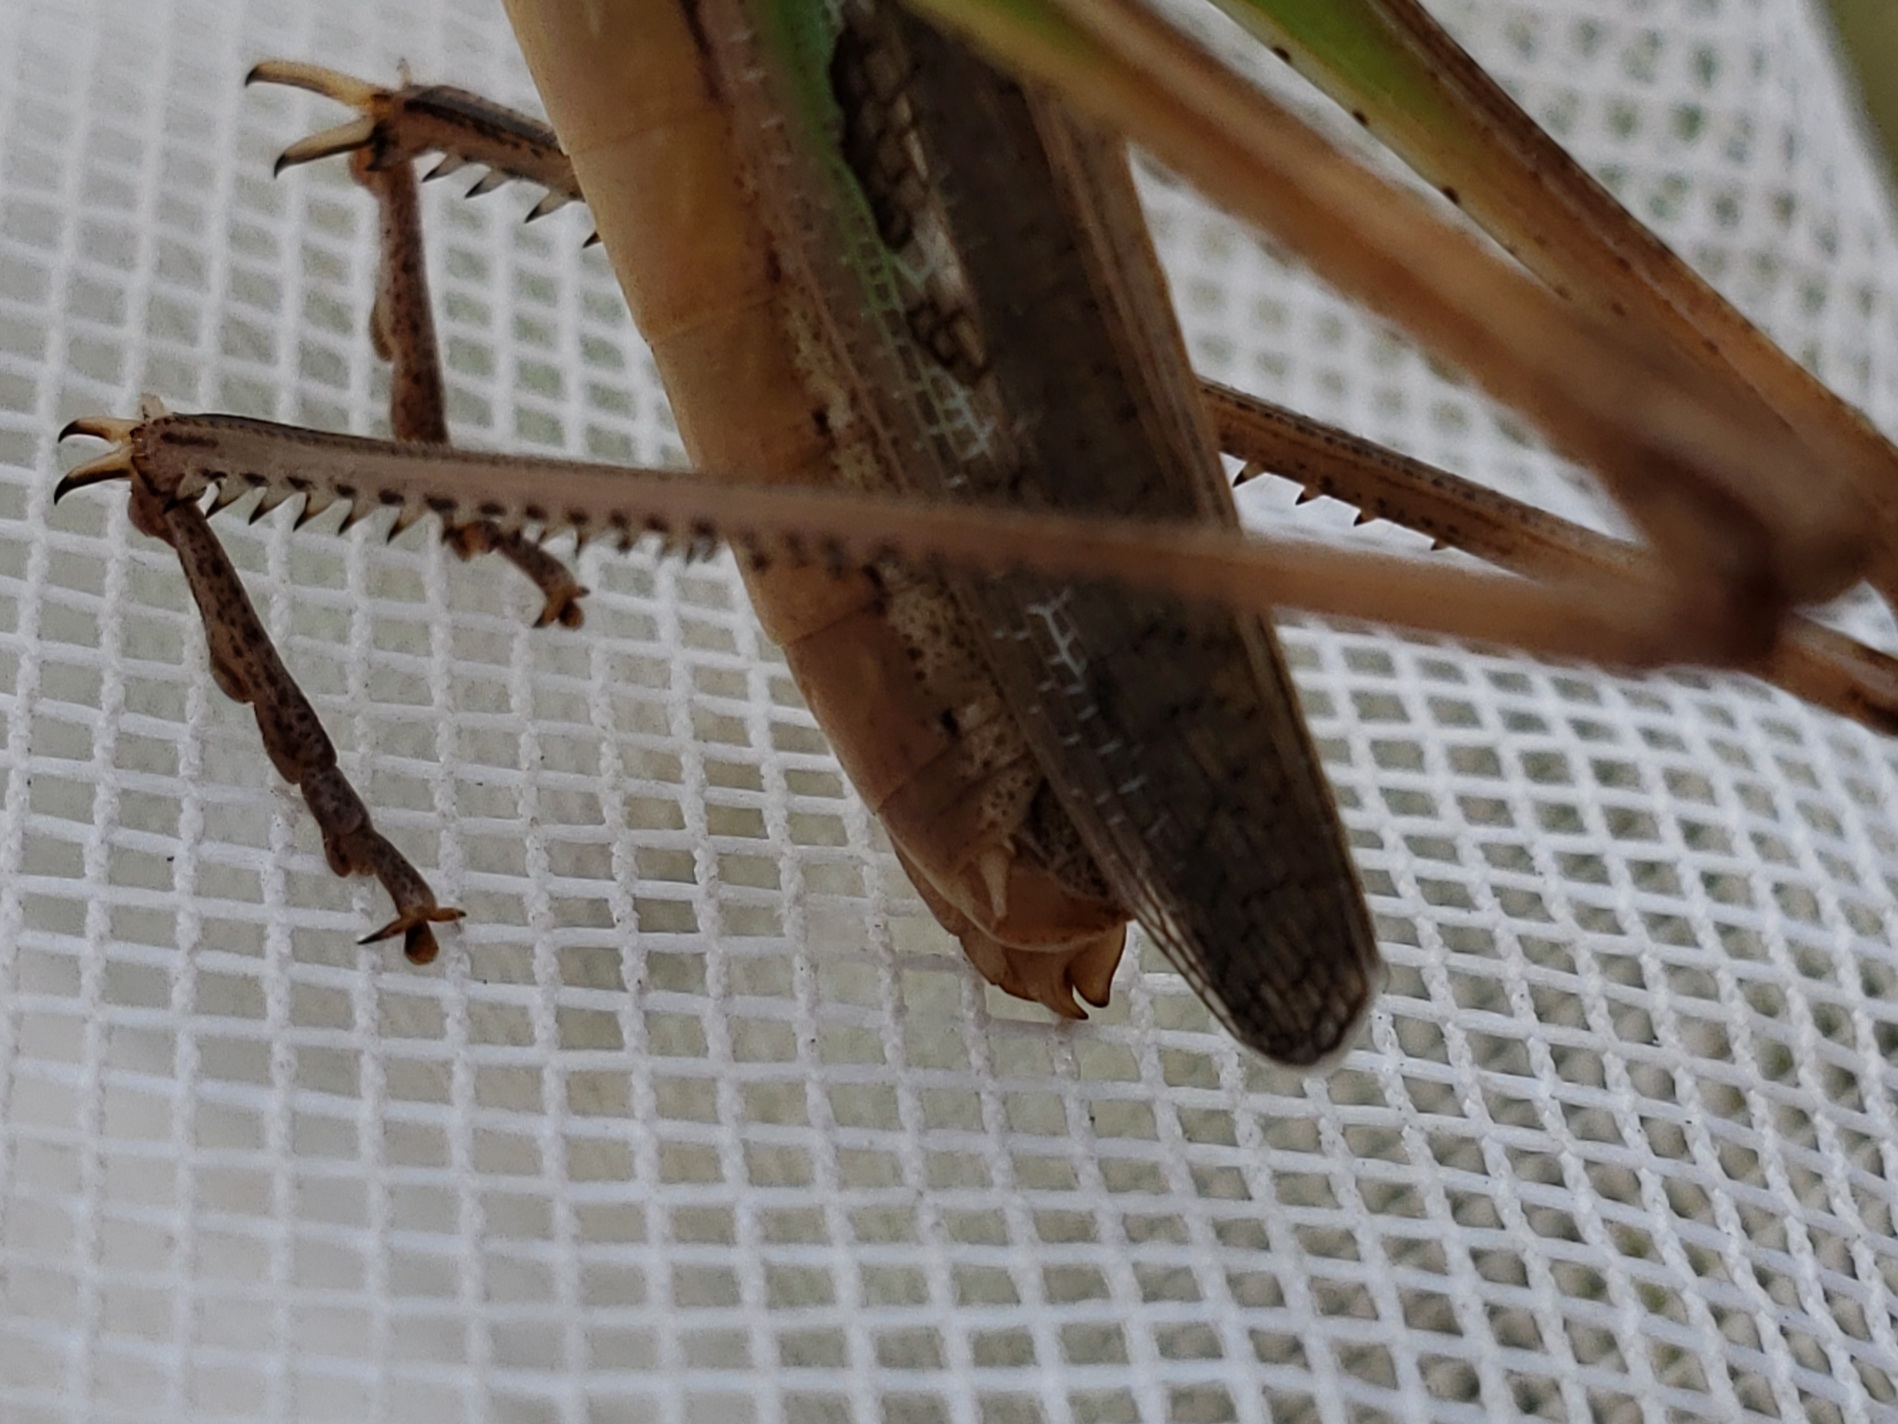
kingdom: Animalia
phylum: Arthropoda
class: Insecta
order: Orthoptera
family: Acrididae
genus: Syrbula
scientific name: Syrbula admirabilis
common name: Handsome grasshopper
